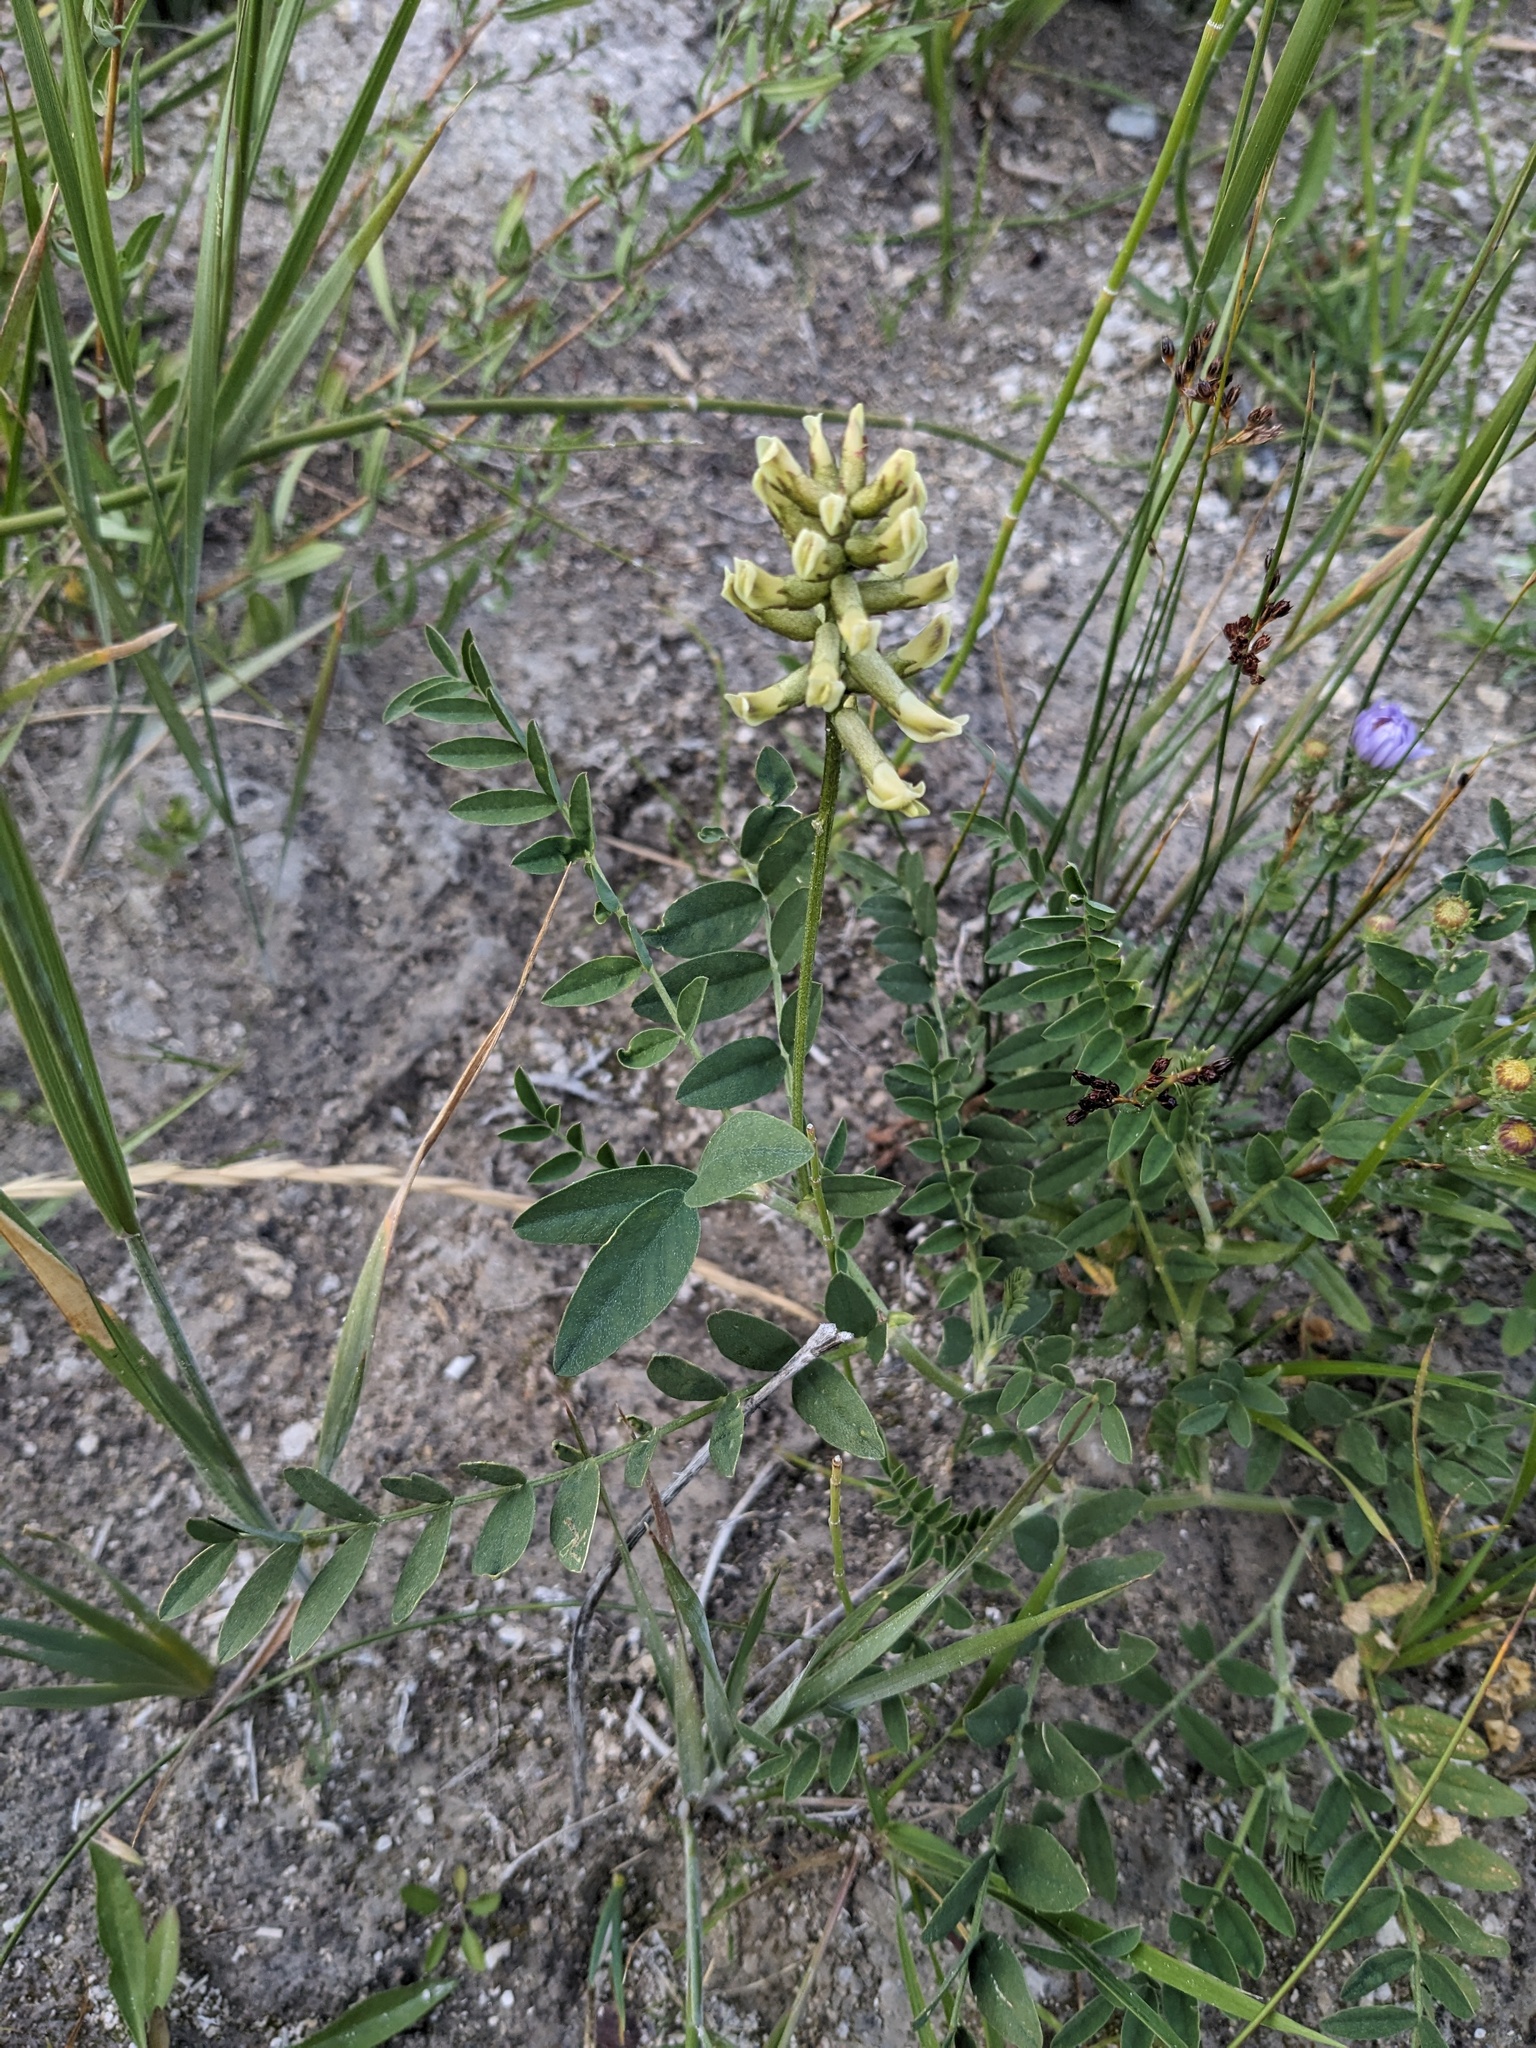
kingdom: Plantae
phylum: Tracheophyta
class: Magnoliopsida
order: Fabales
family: Fabaceae
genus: Astragalus
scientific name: Astragalus canadensis
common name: Canada milk-vetch
